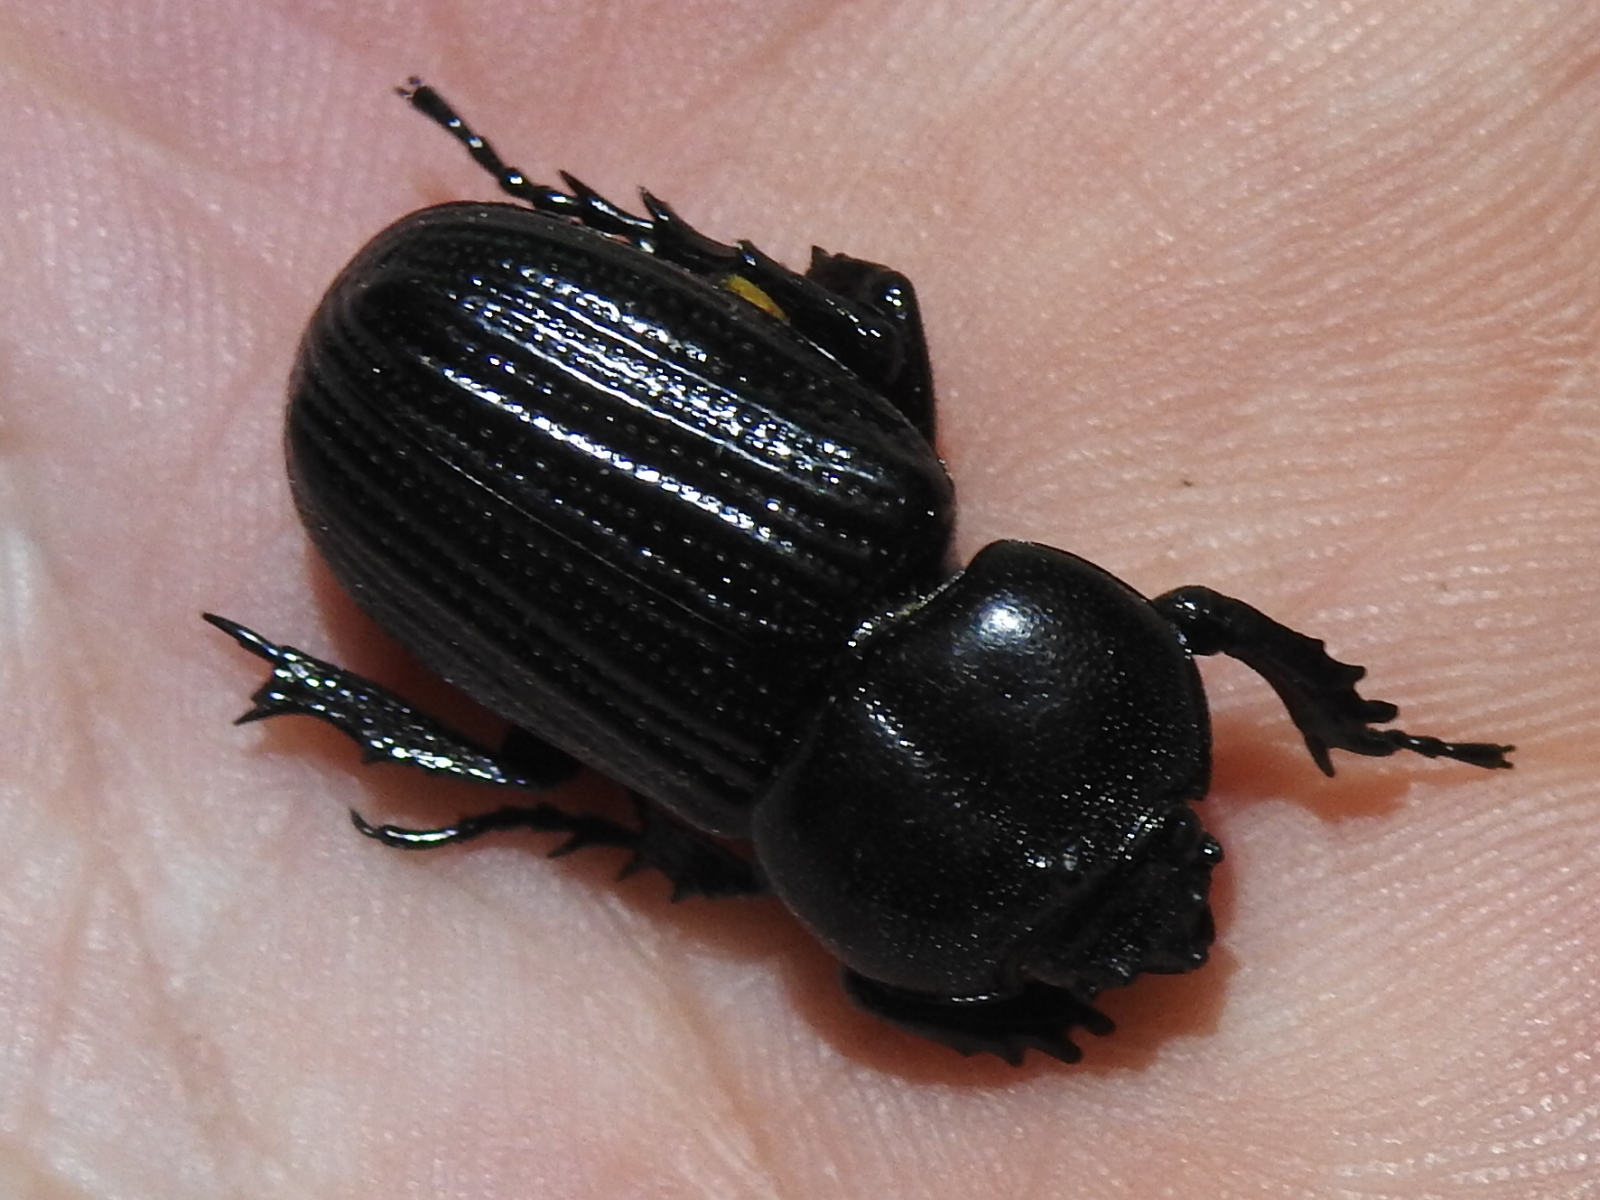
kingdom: Animalia
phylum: Arthropoda
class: Insecta
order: Coleoptera
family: Scarabaeidae
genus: Phileurus
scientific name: Phileurus valgus
